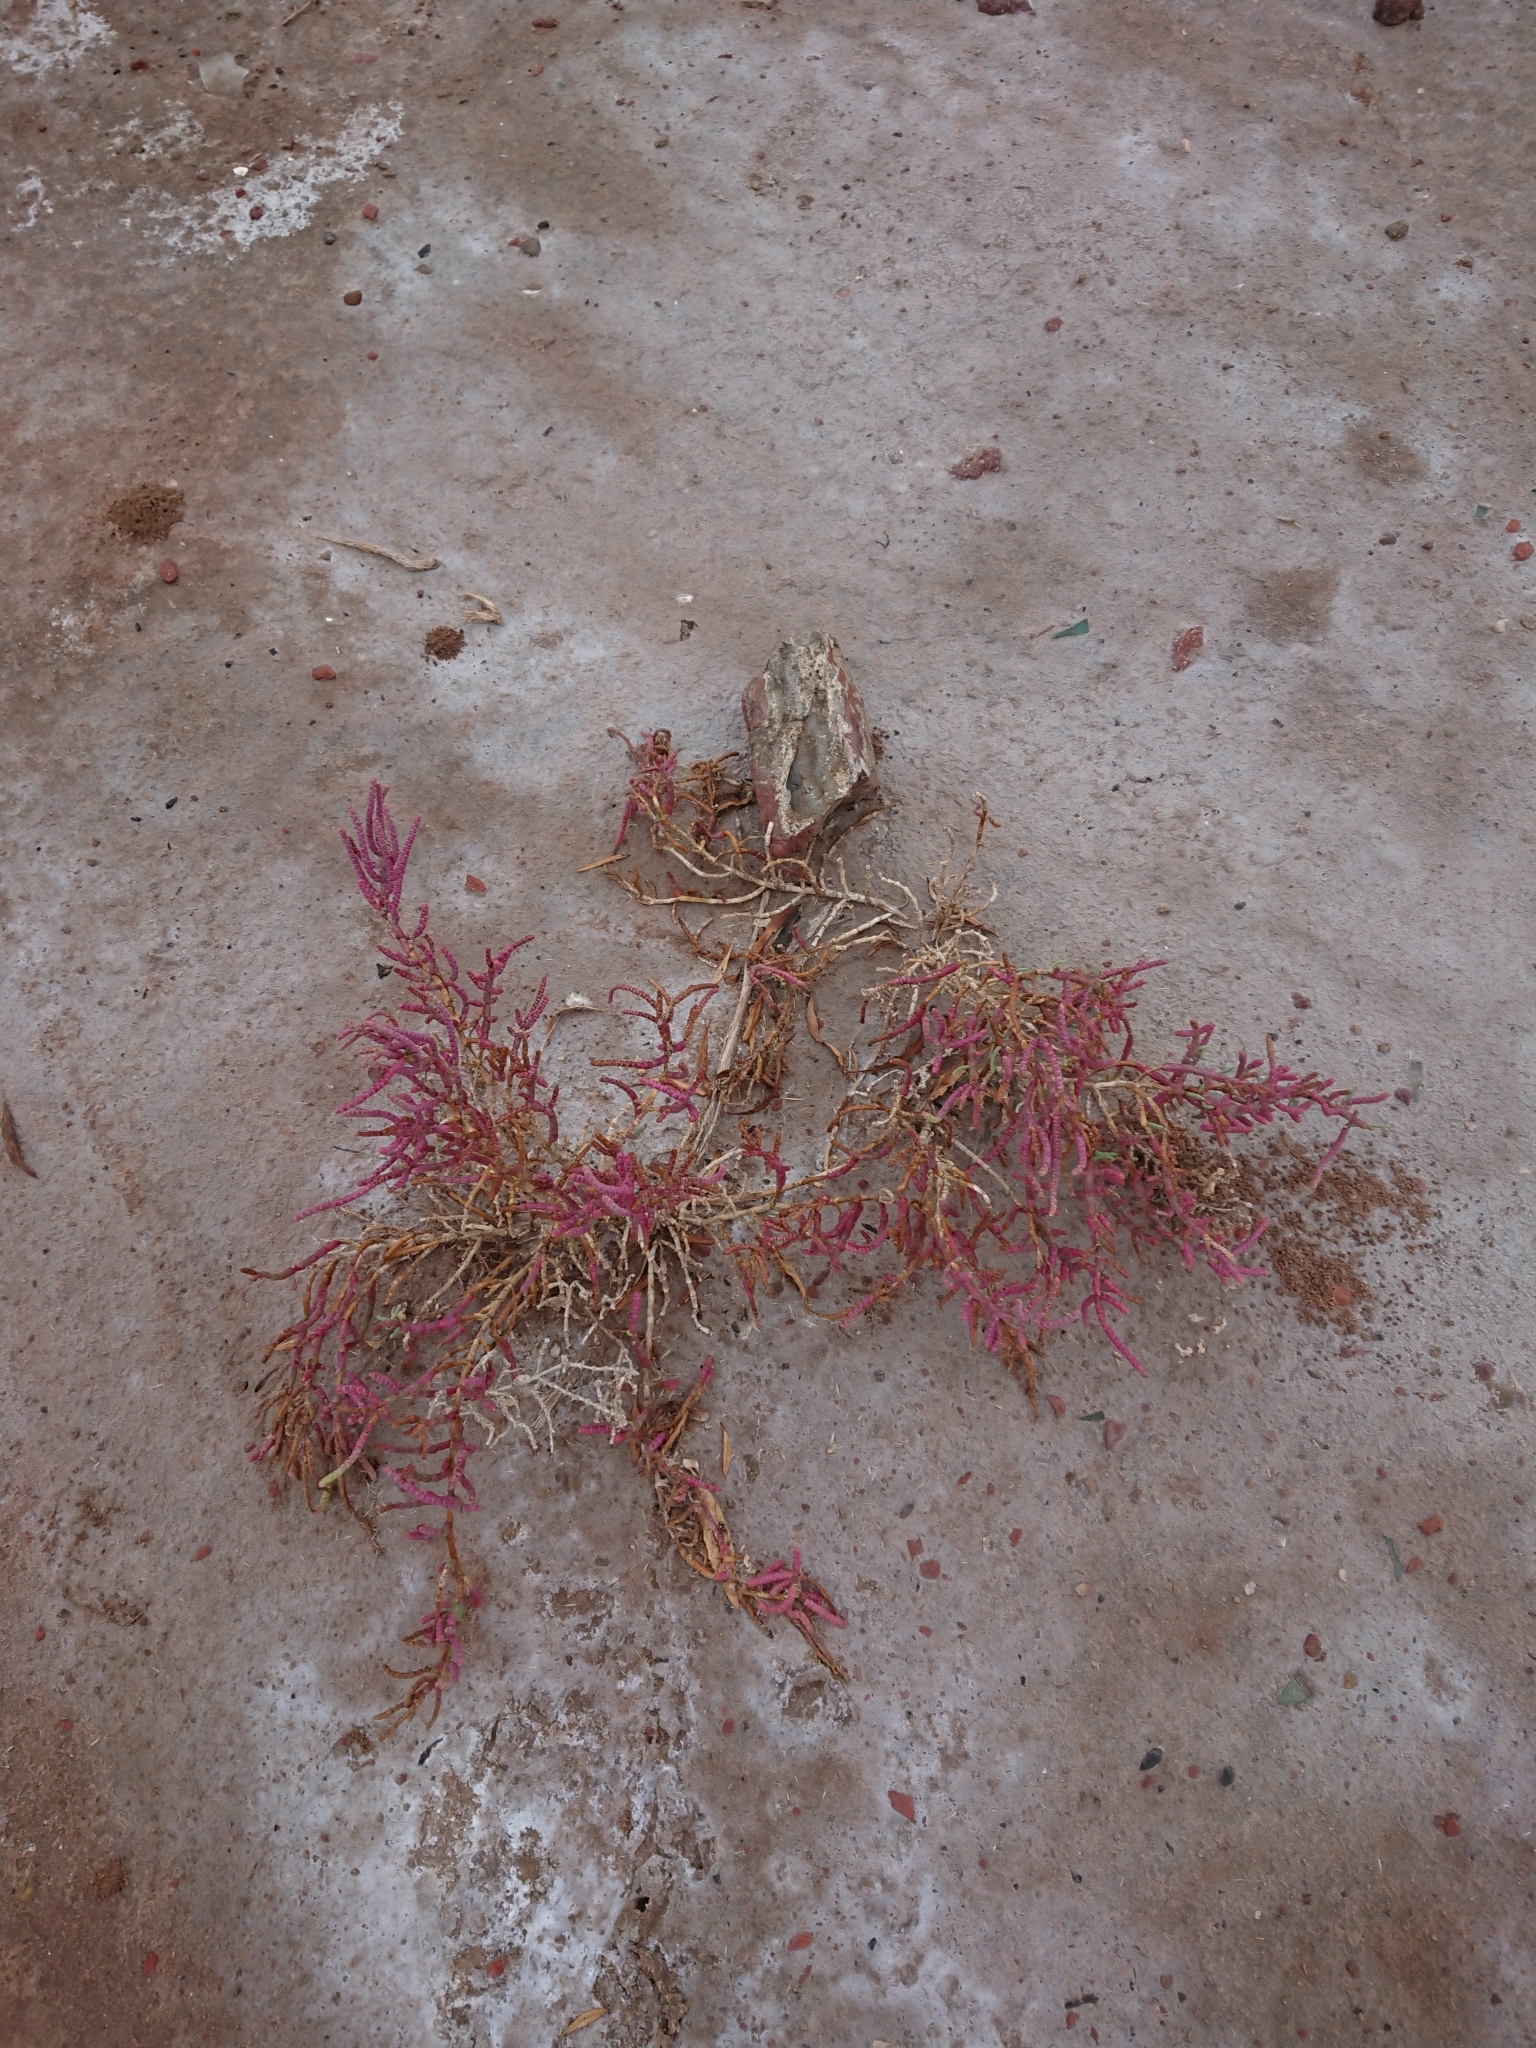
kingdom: Plantae
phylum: Tracheophyta
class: Magnoliopsida
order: Caryophyllales
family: Amaranthaceae
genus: Salicornia
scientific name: Salicornia neei
